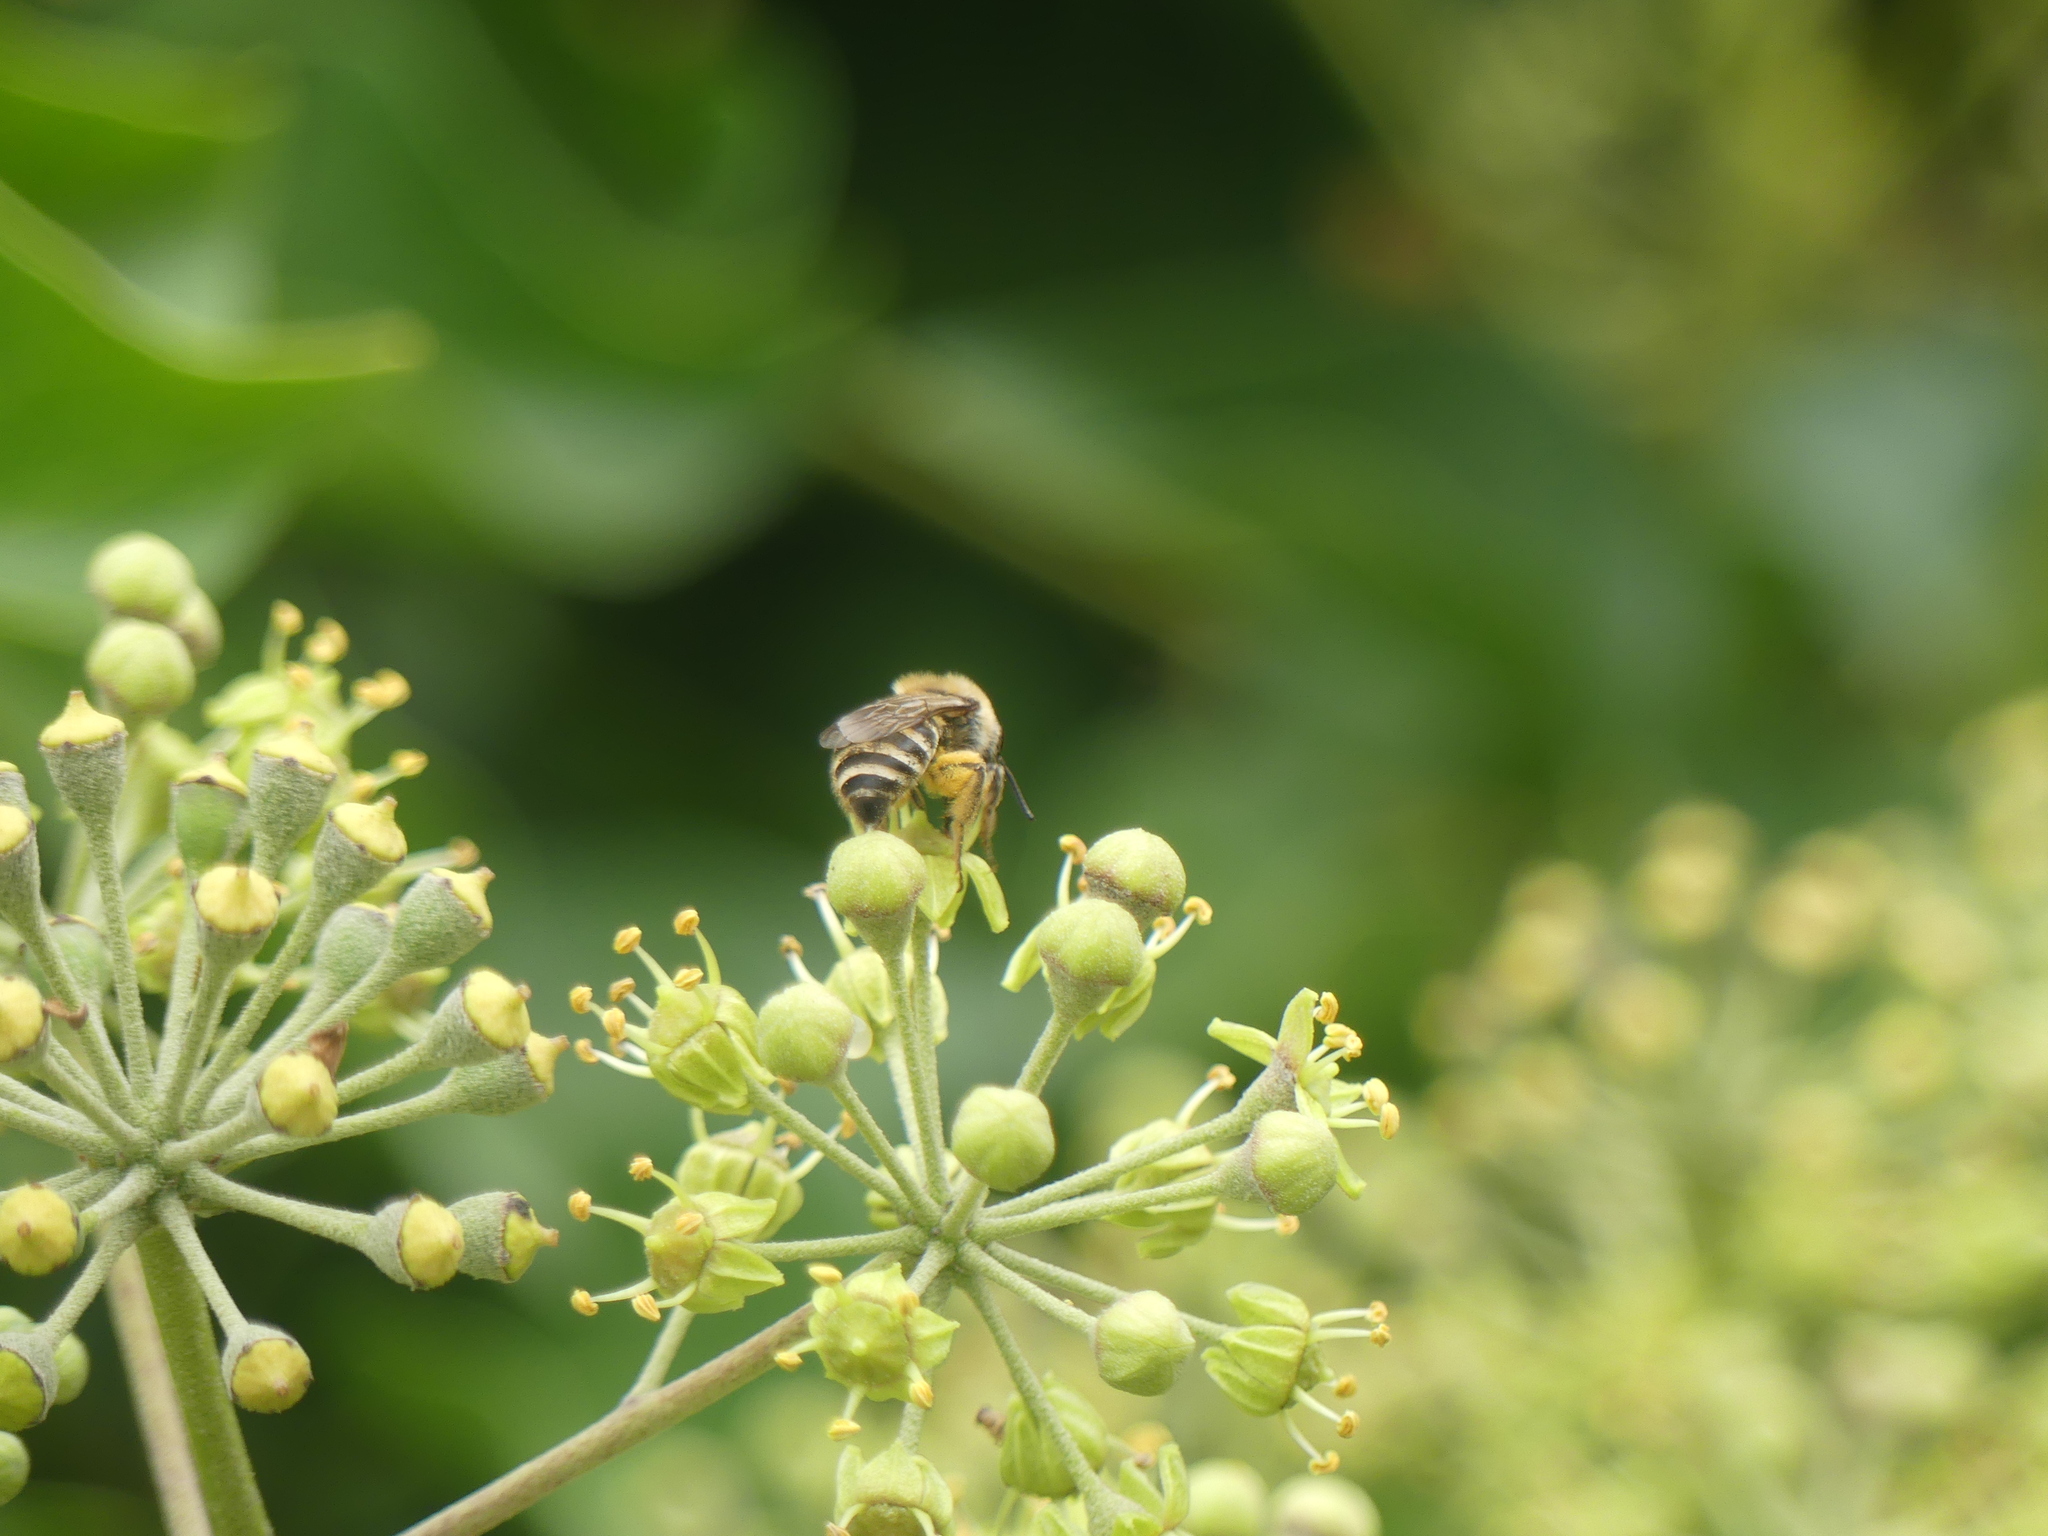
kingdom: Animalia
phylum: Arthropoda
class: Insecta
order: Hymenoptera
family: Colletidae
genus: Colletes
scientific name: Colletes hederae
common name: Ivy bee
